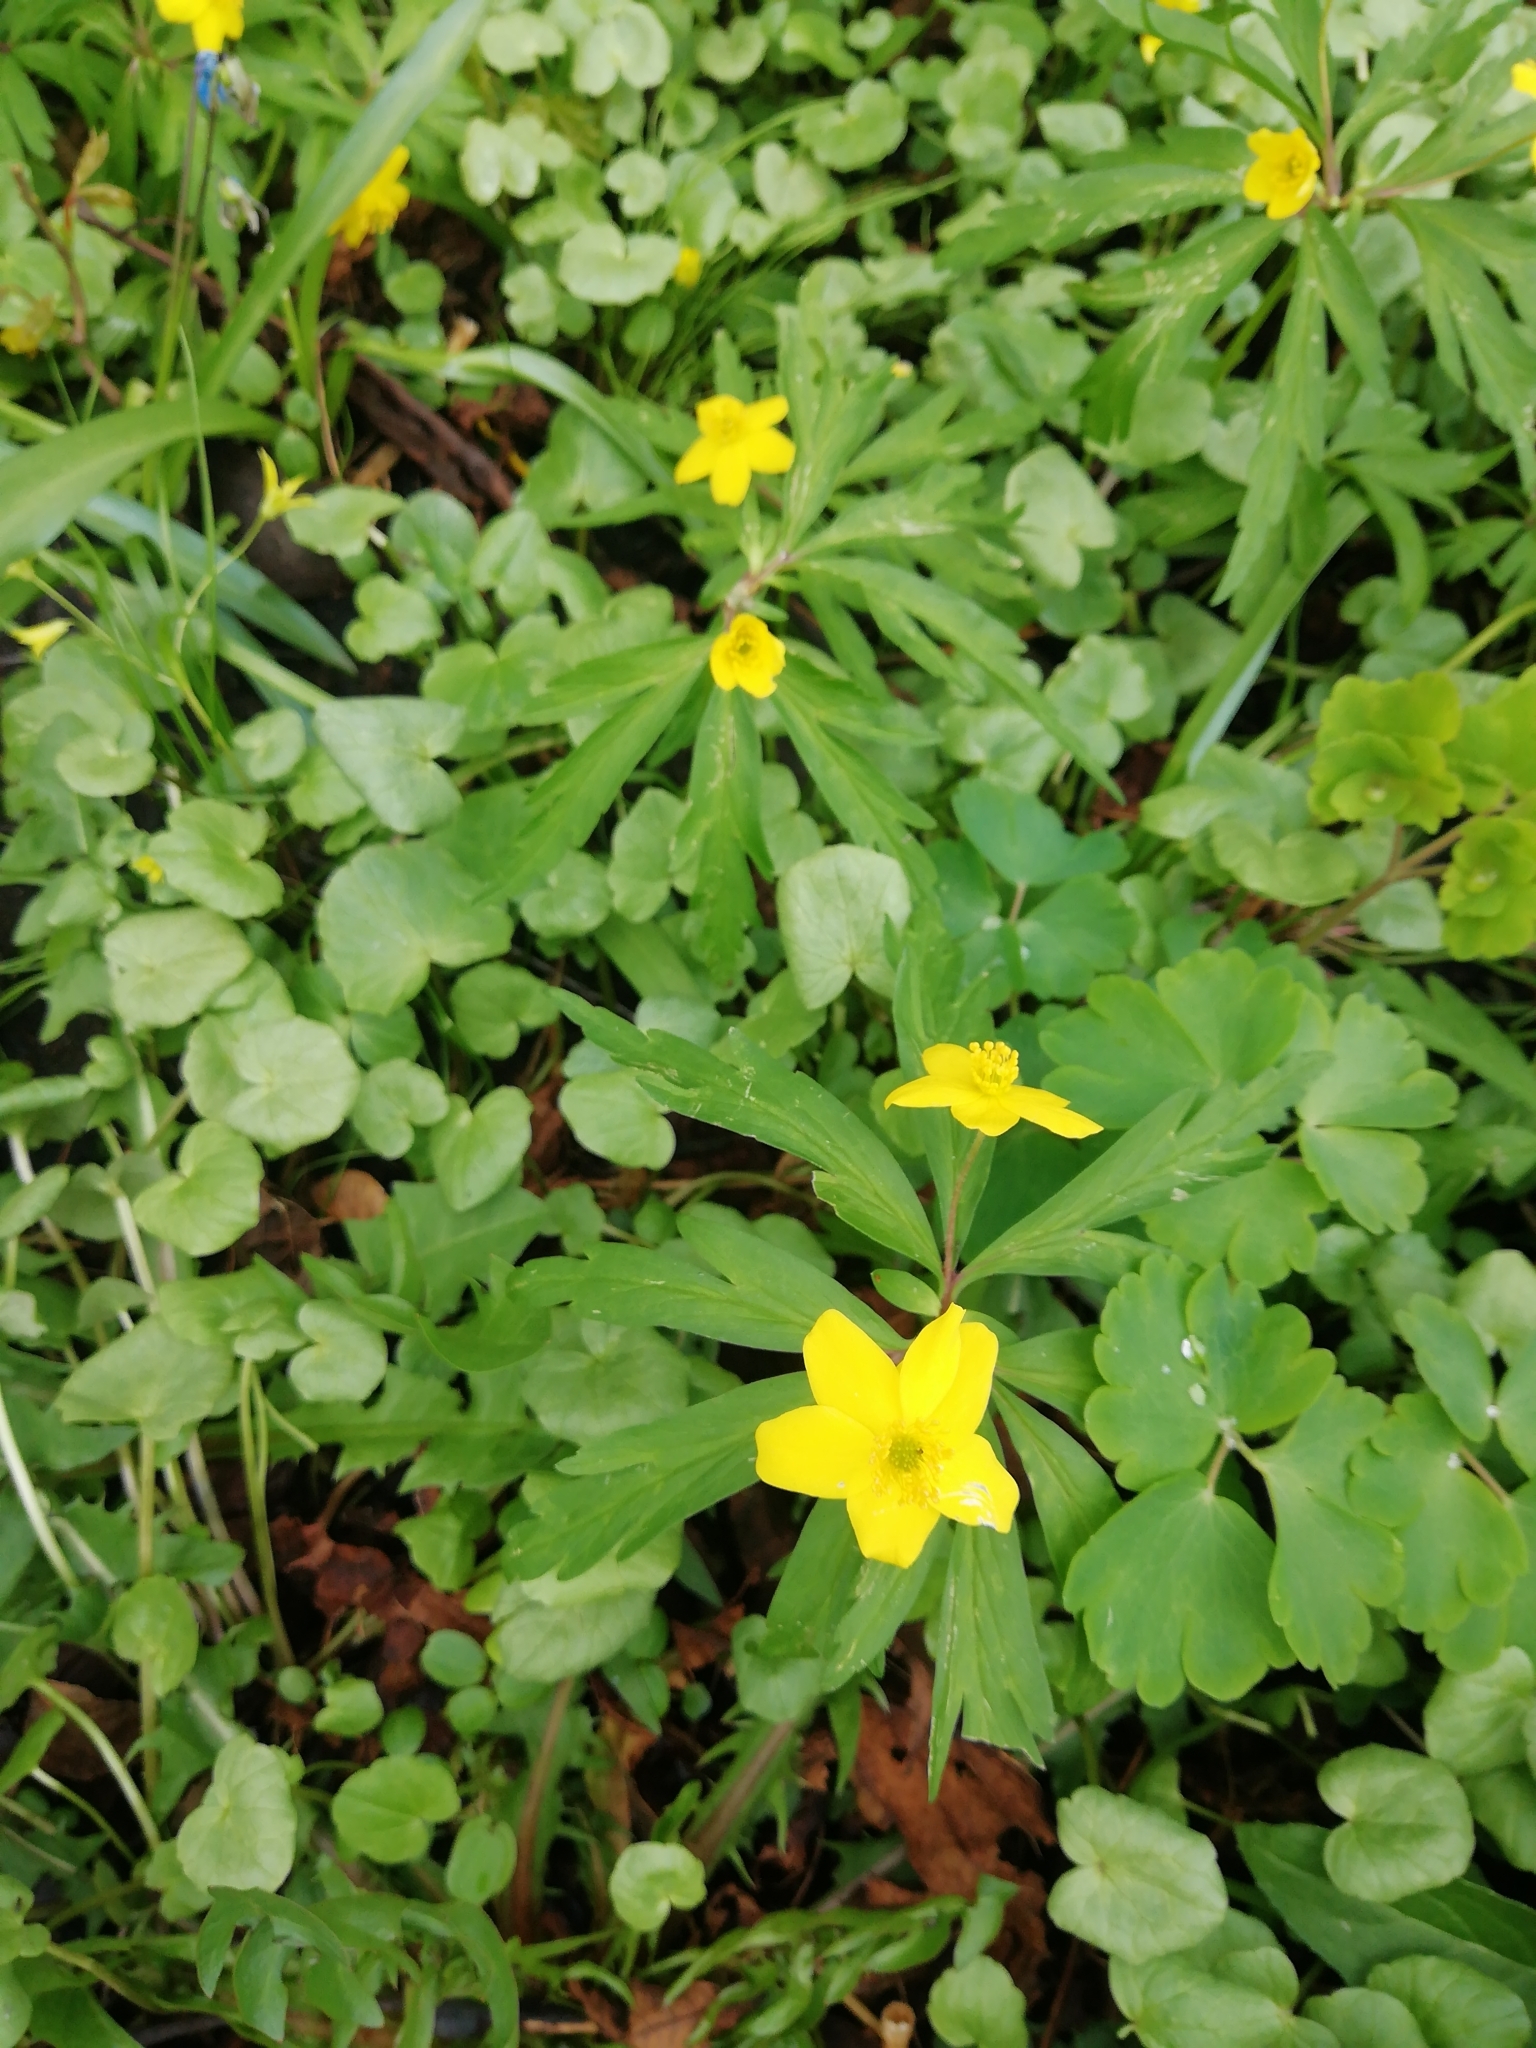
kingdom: Plantae
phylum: Tracheophyta
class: Magnoliopsida
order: Ranunculales
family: Ranunculaceae
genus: Anemone
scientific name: Anemone ranunculoides
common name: Yellow anemone
